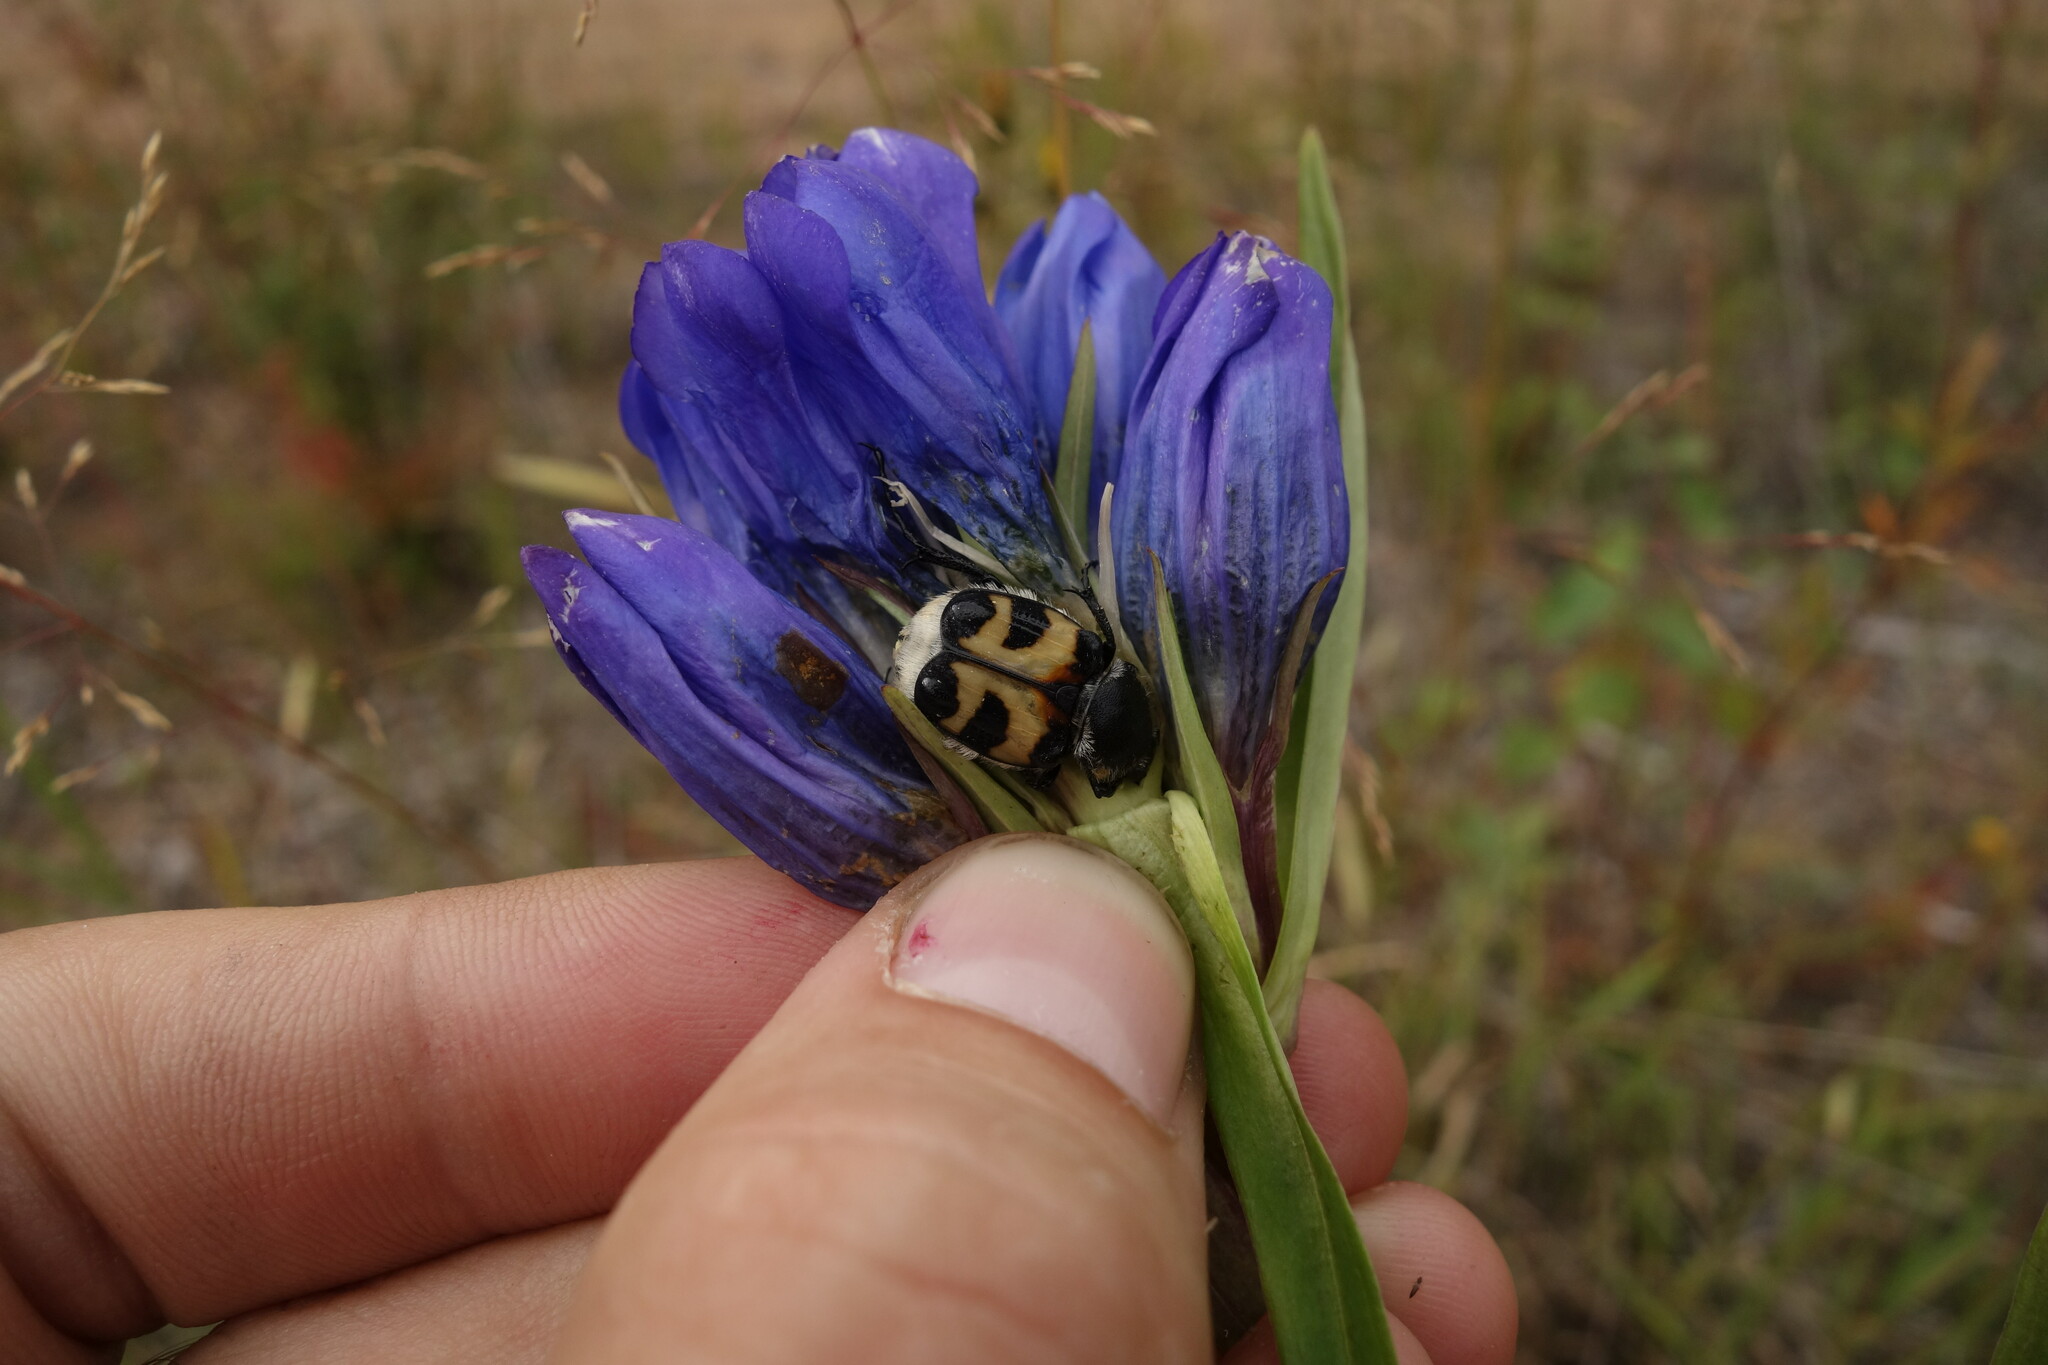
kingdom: Animalia
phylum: Arthropoda
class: Insecta
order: Coleoptera
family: Scarabaeidae
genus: Trichius
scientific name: Trichius fasciatus
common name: Bee beetle
